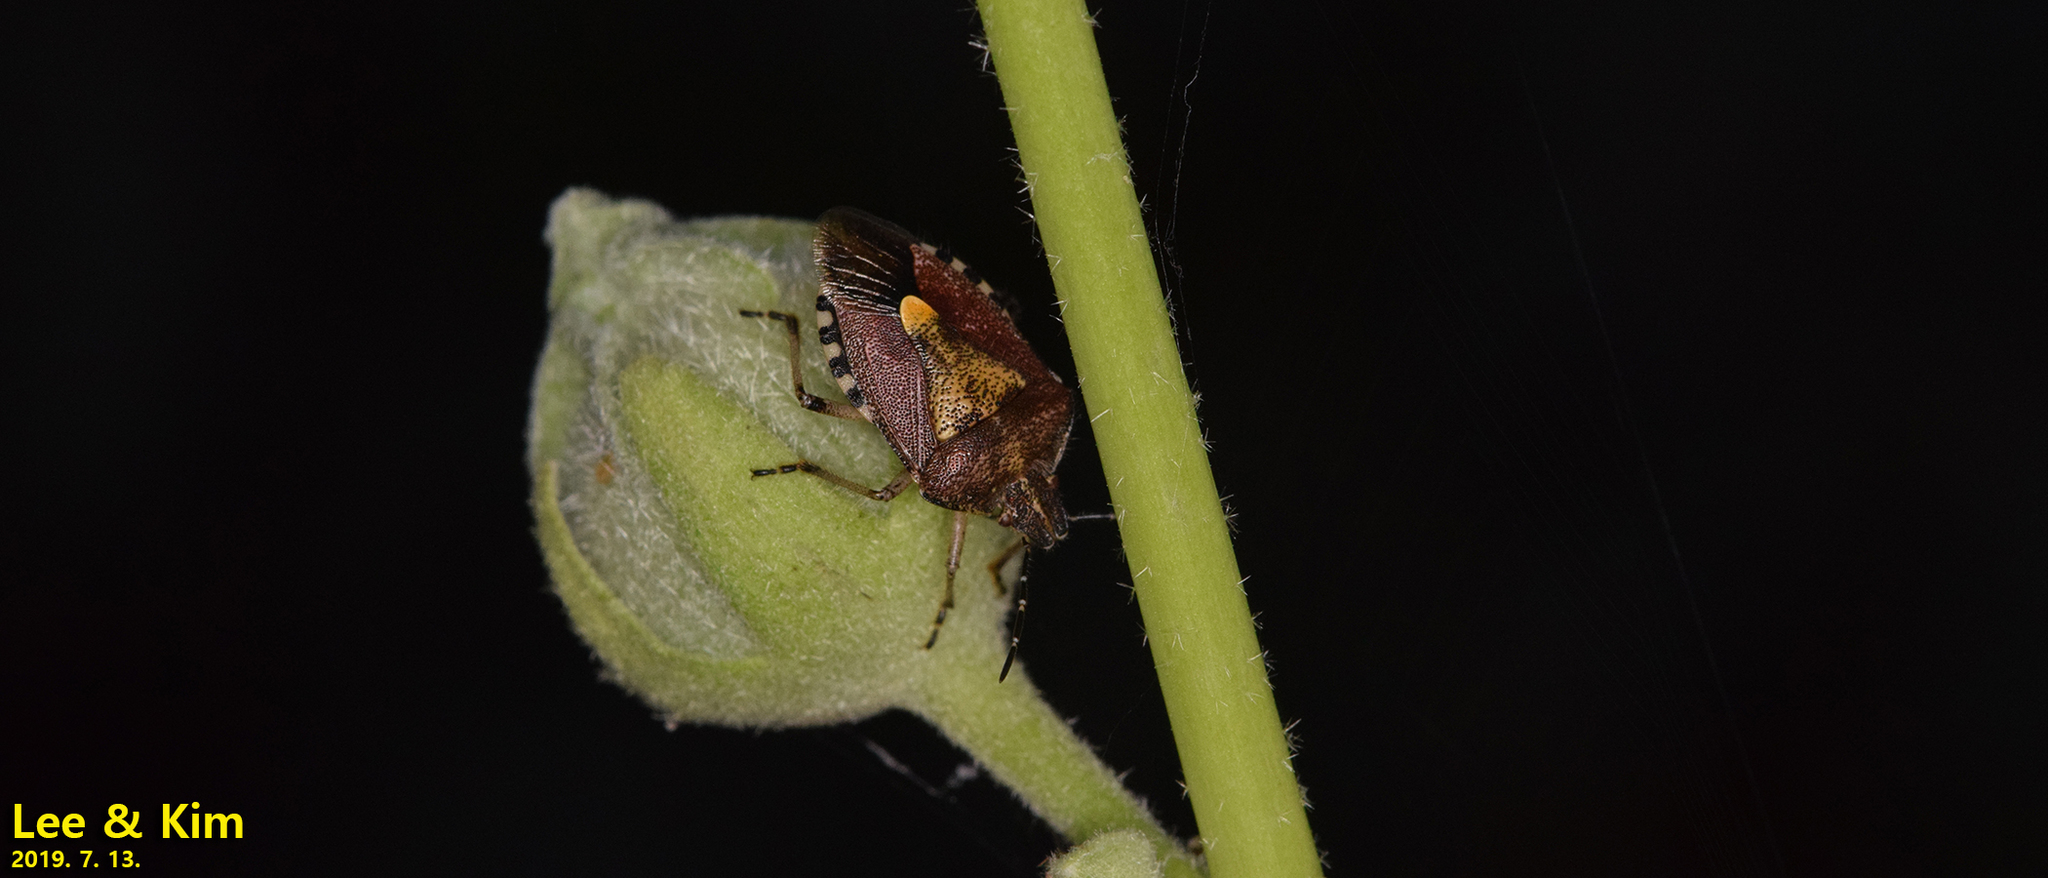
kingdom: Animalia
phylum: Arthropoda
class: Insecta
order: Hemiptera
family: Pentatomidae
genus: Dolycoris
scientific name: Dolycoris baccarum
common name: Sloe bug
